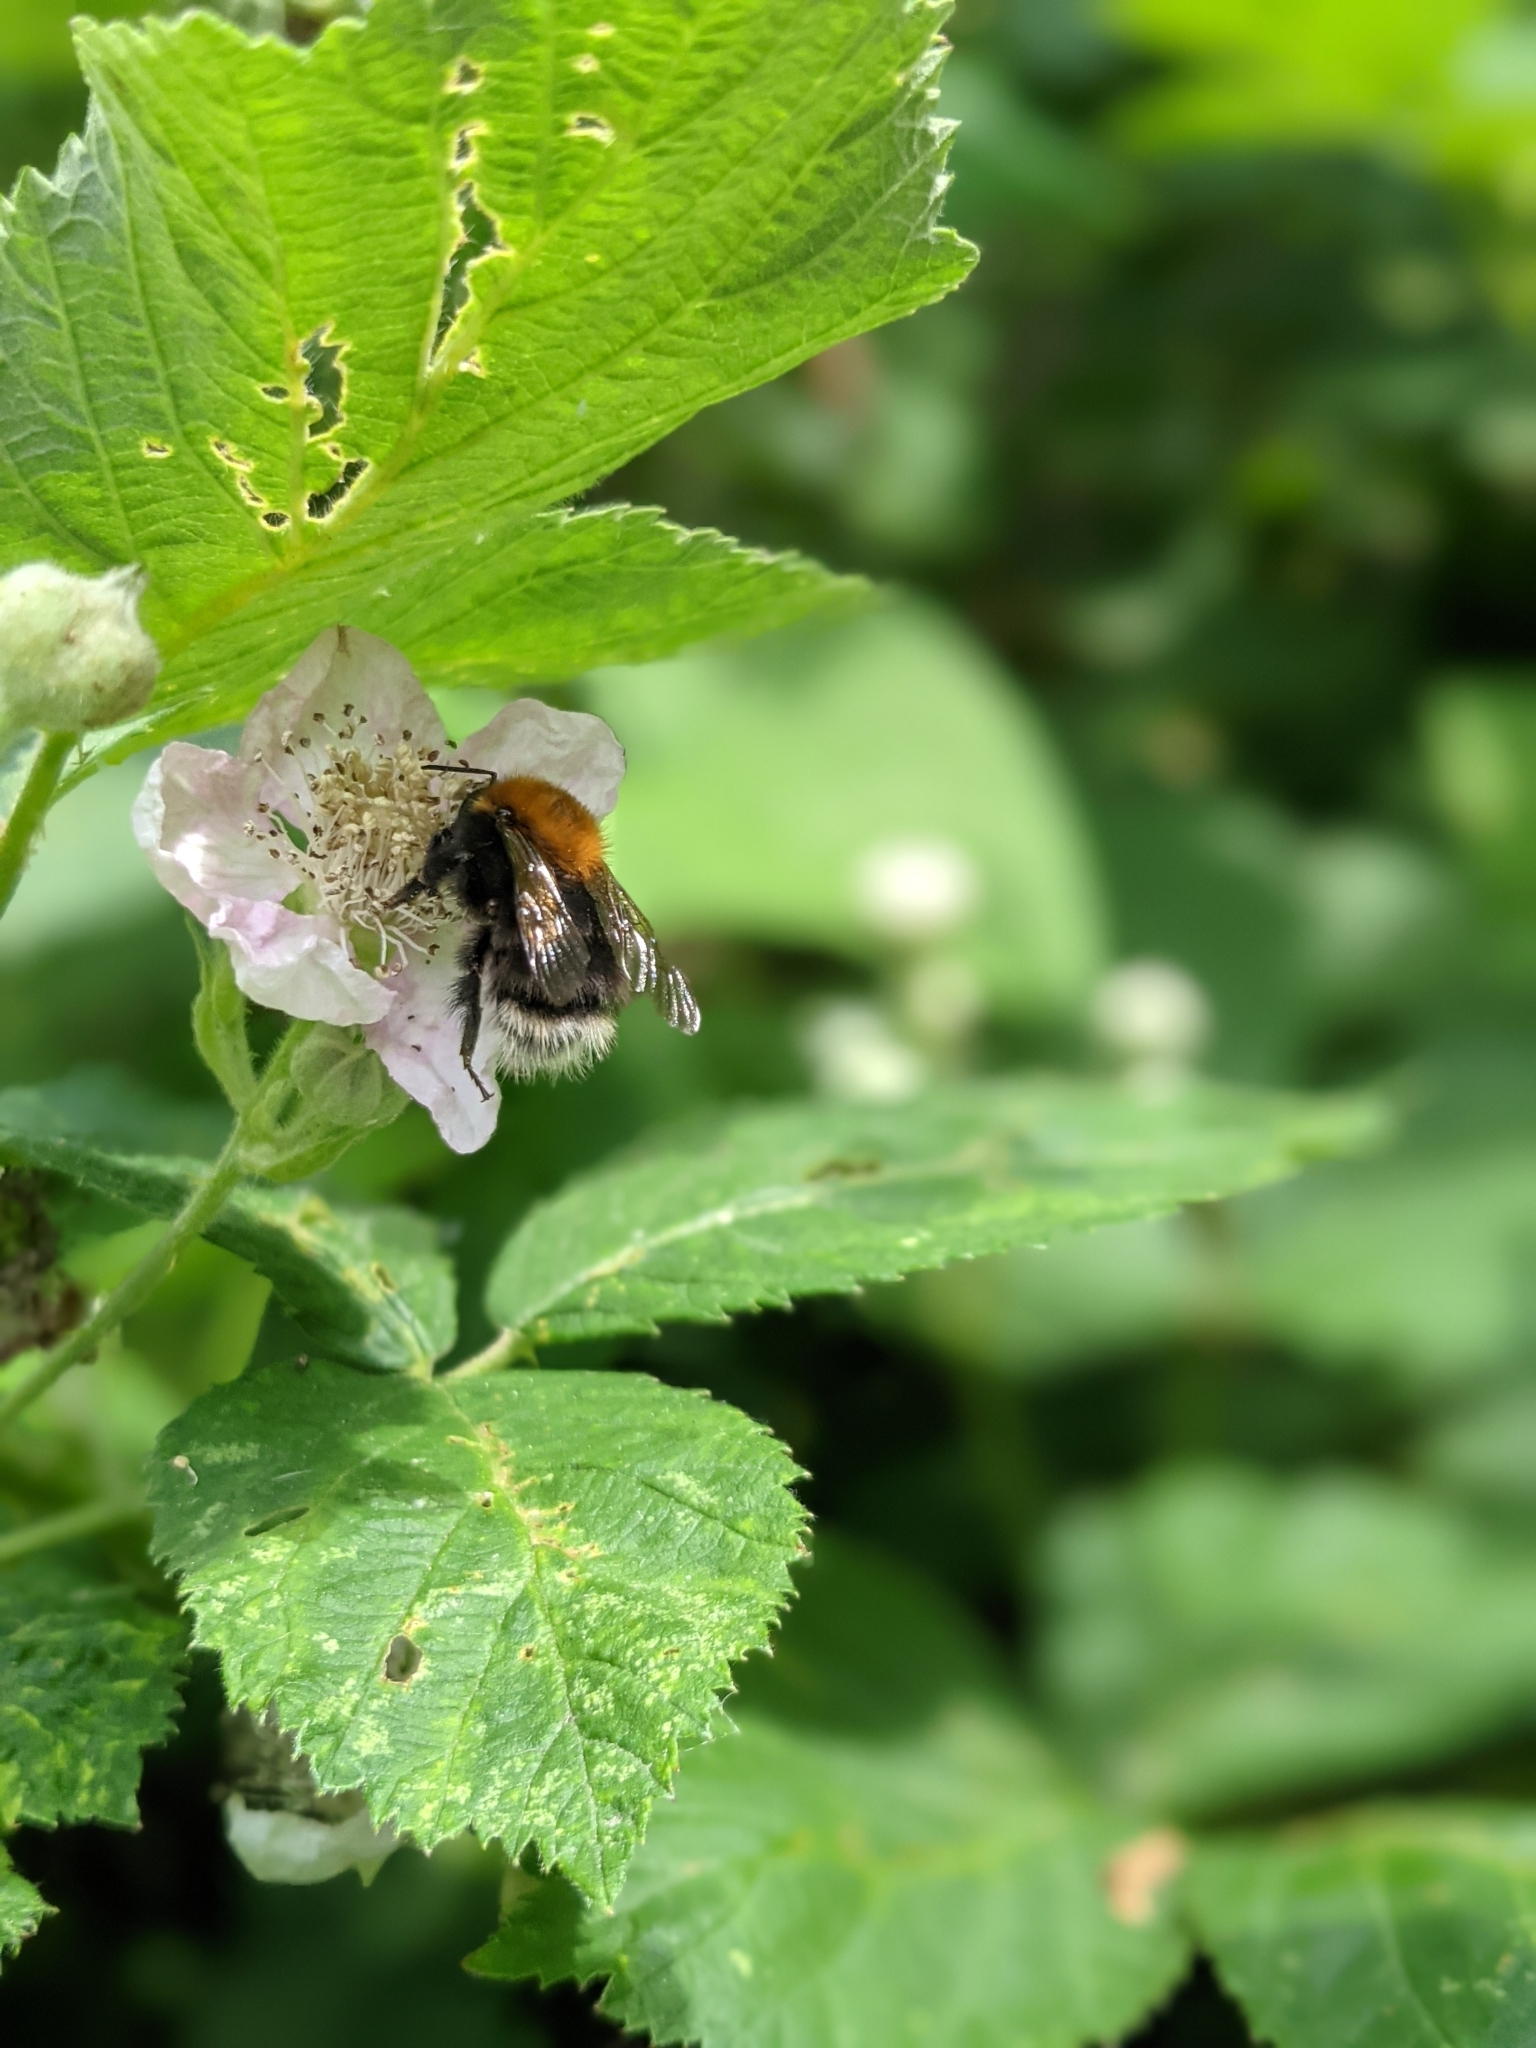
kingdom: Animalia
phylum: Arthropoda
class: Insecta
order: Hymenoptera
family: Apidae
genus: Bombus
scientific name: Bombus hypnorum
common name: New garden bumblebee
